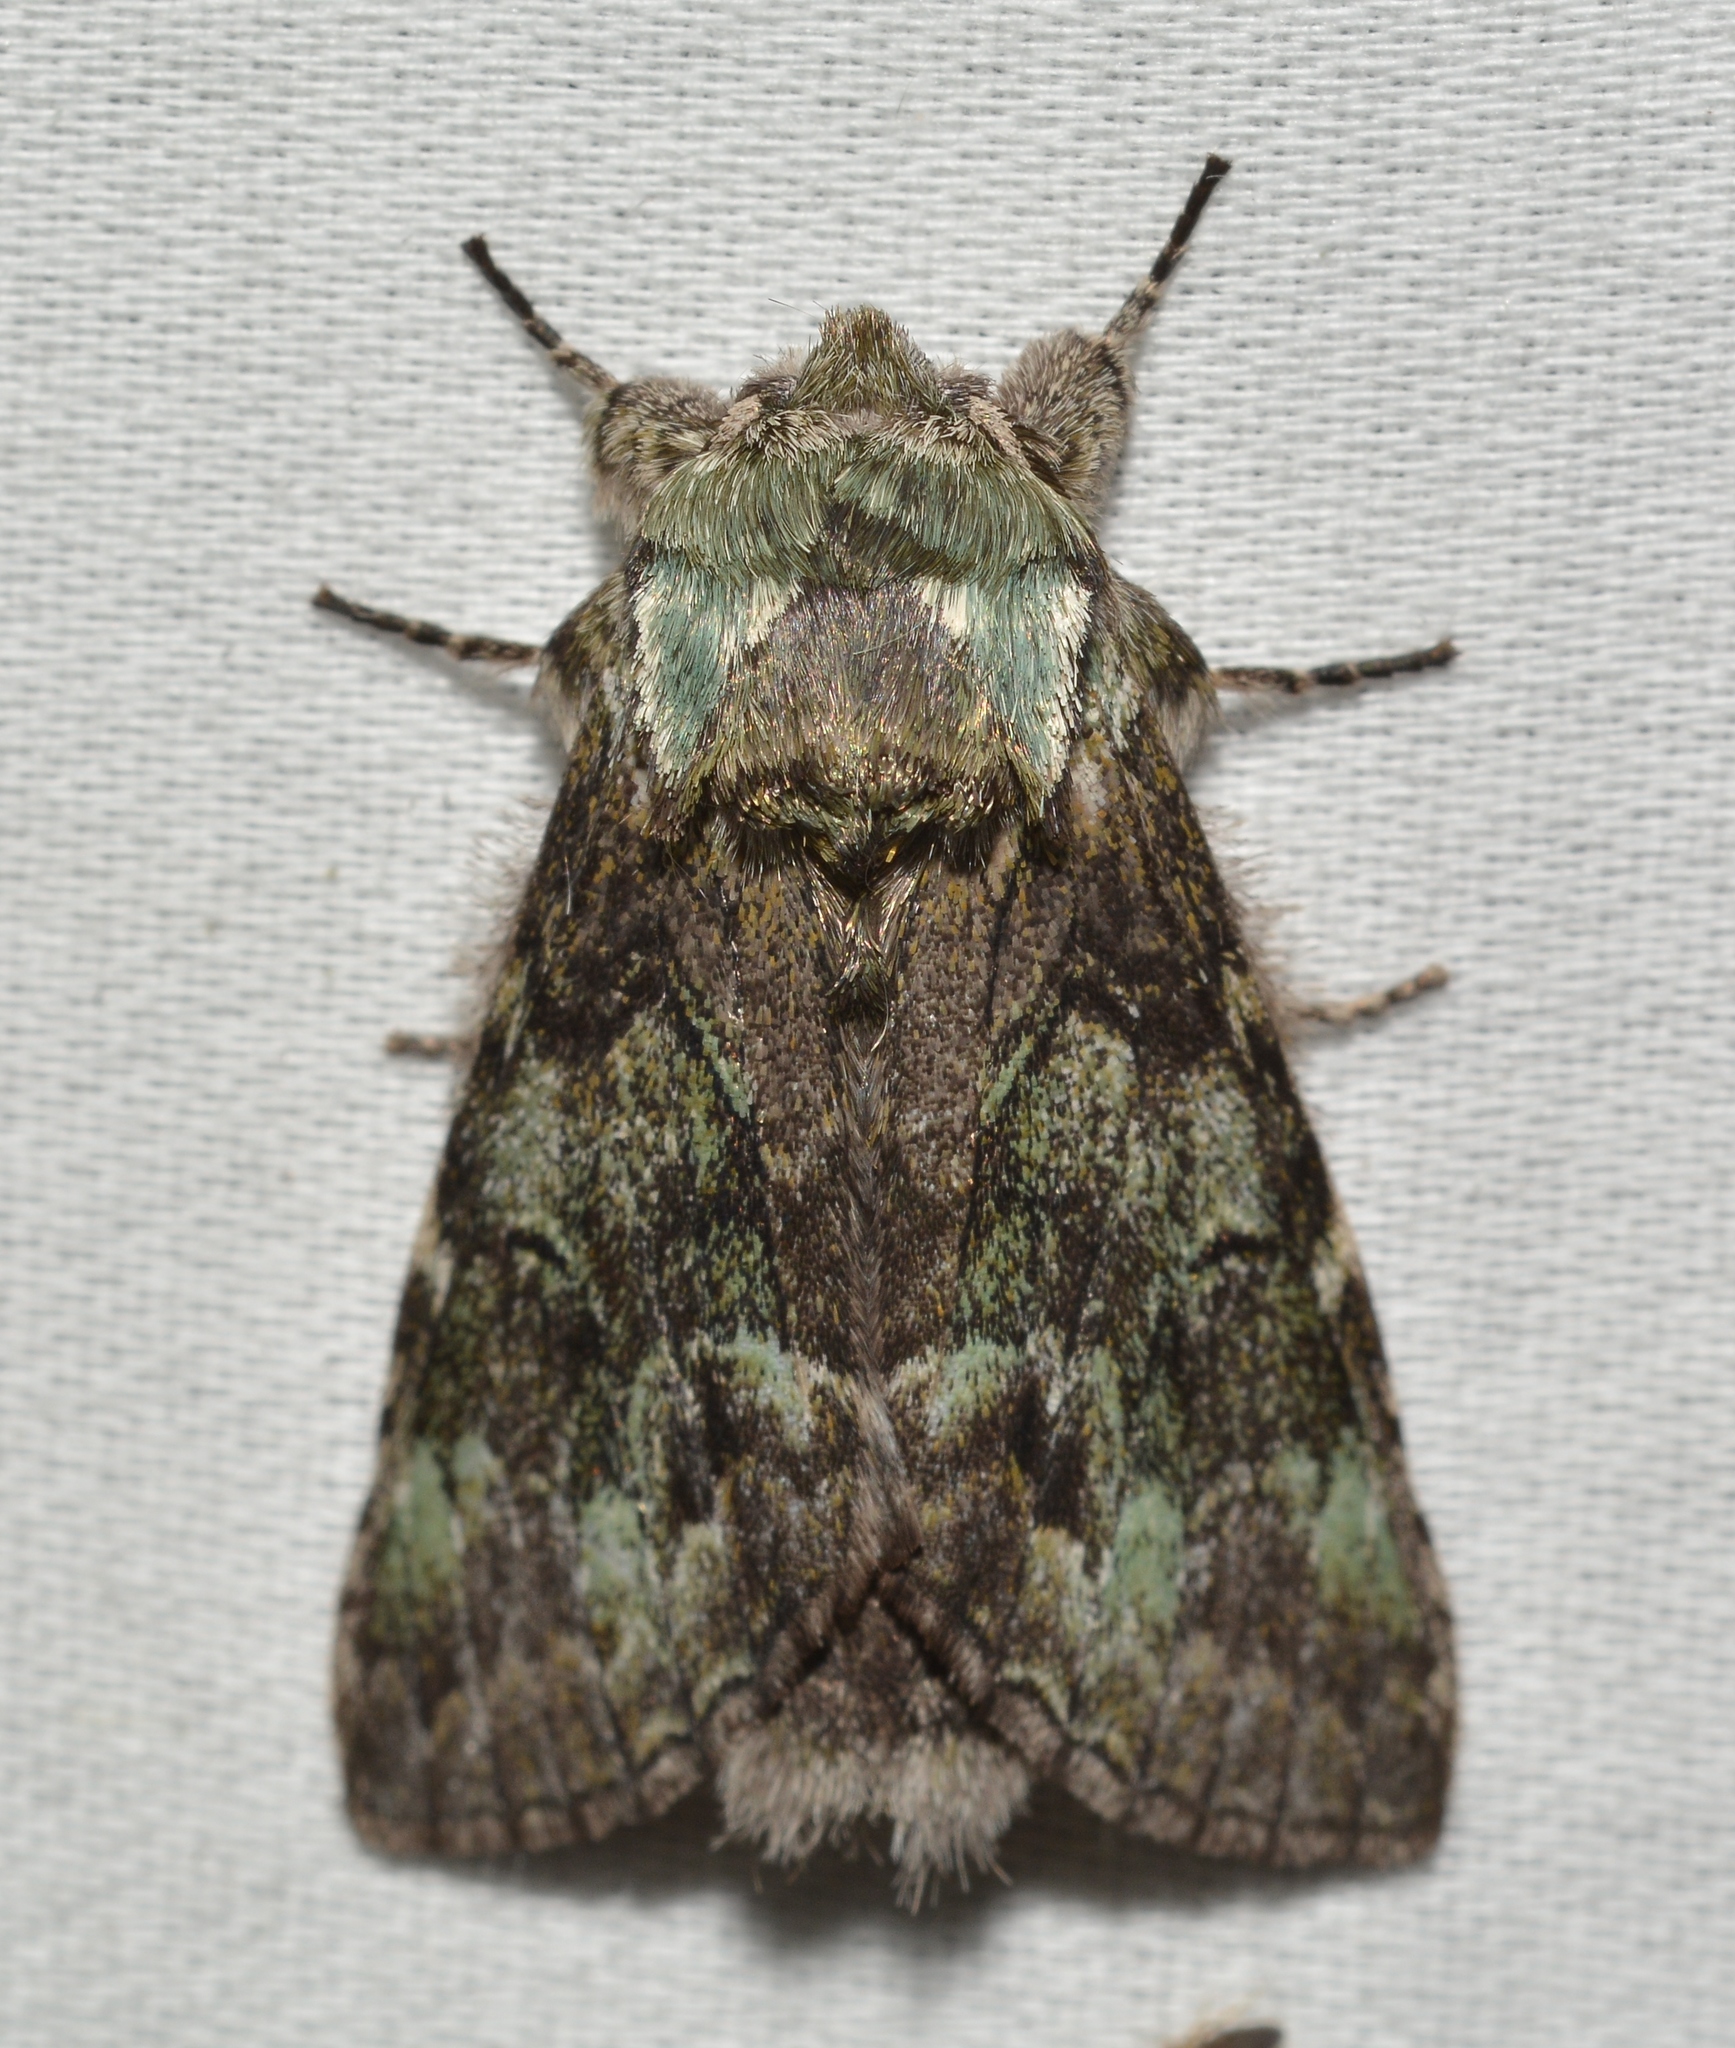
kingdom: Animalia
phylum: Arthropoda
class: Insecta
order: Lepidoptera
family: Notodontidae
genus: Macrurocampa
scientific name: Macrurocampa marthesia
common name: Mottled prominent
